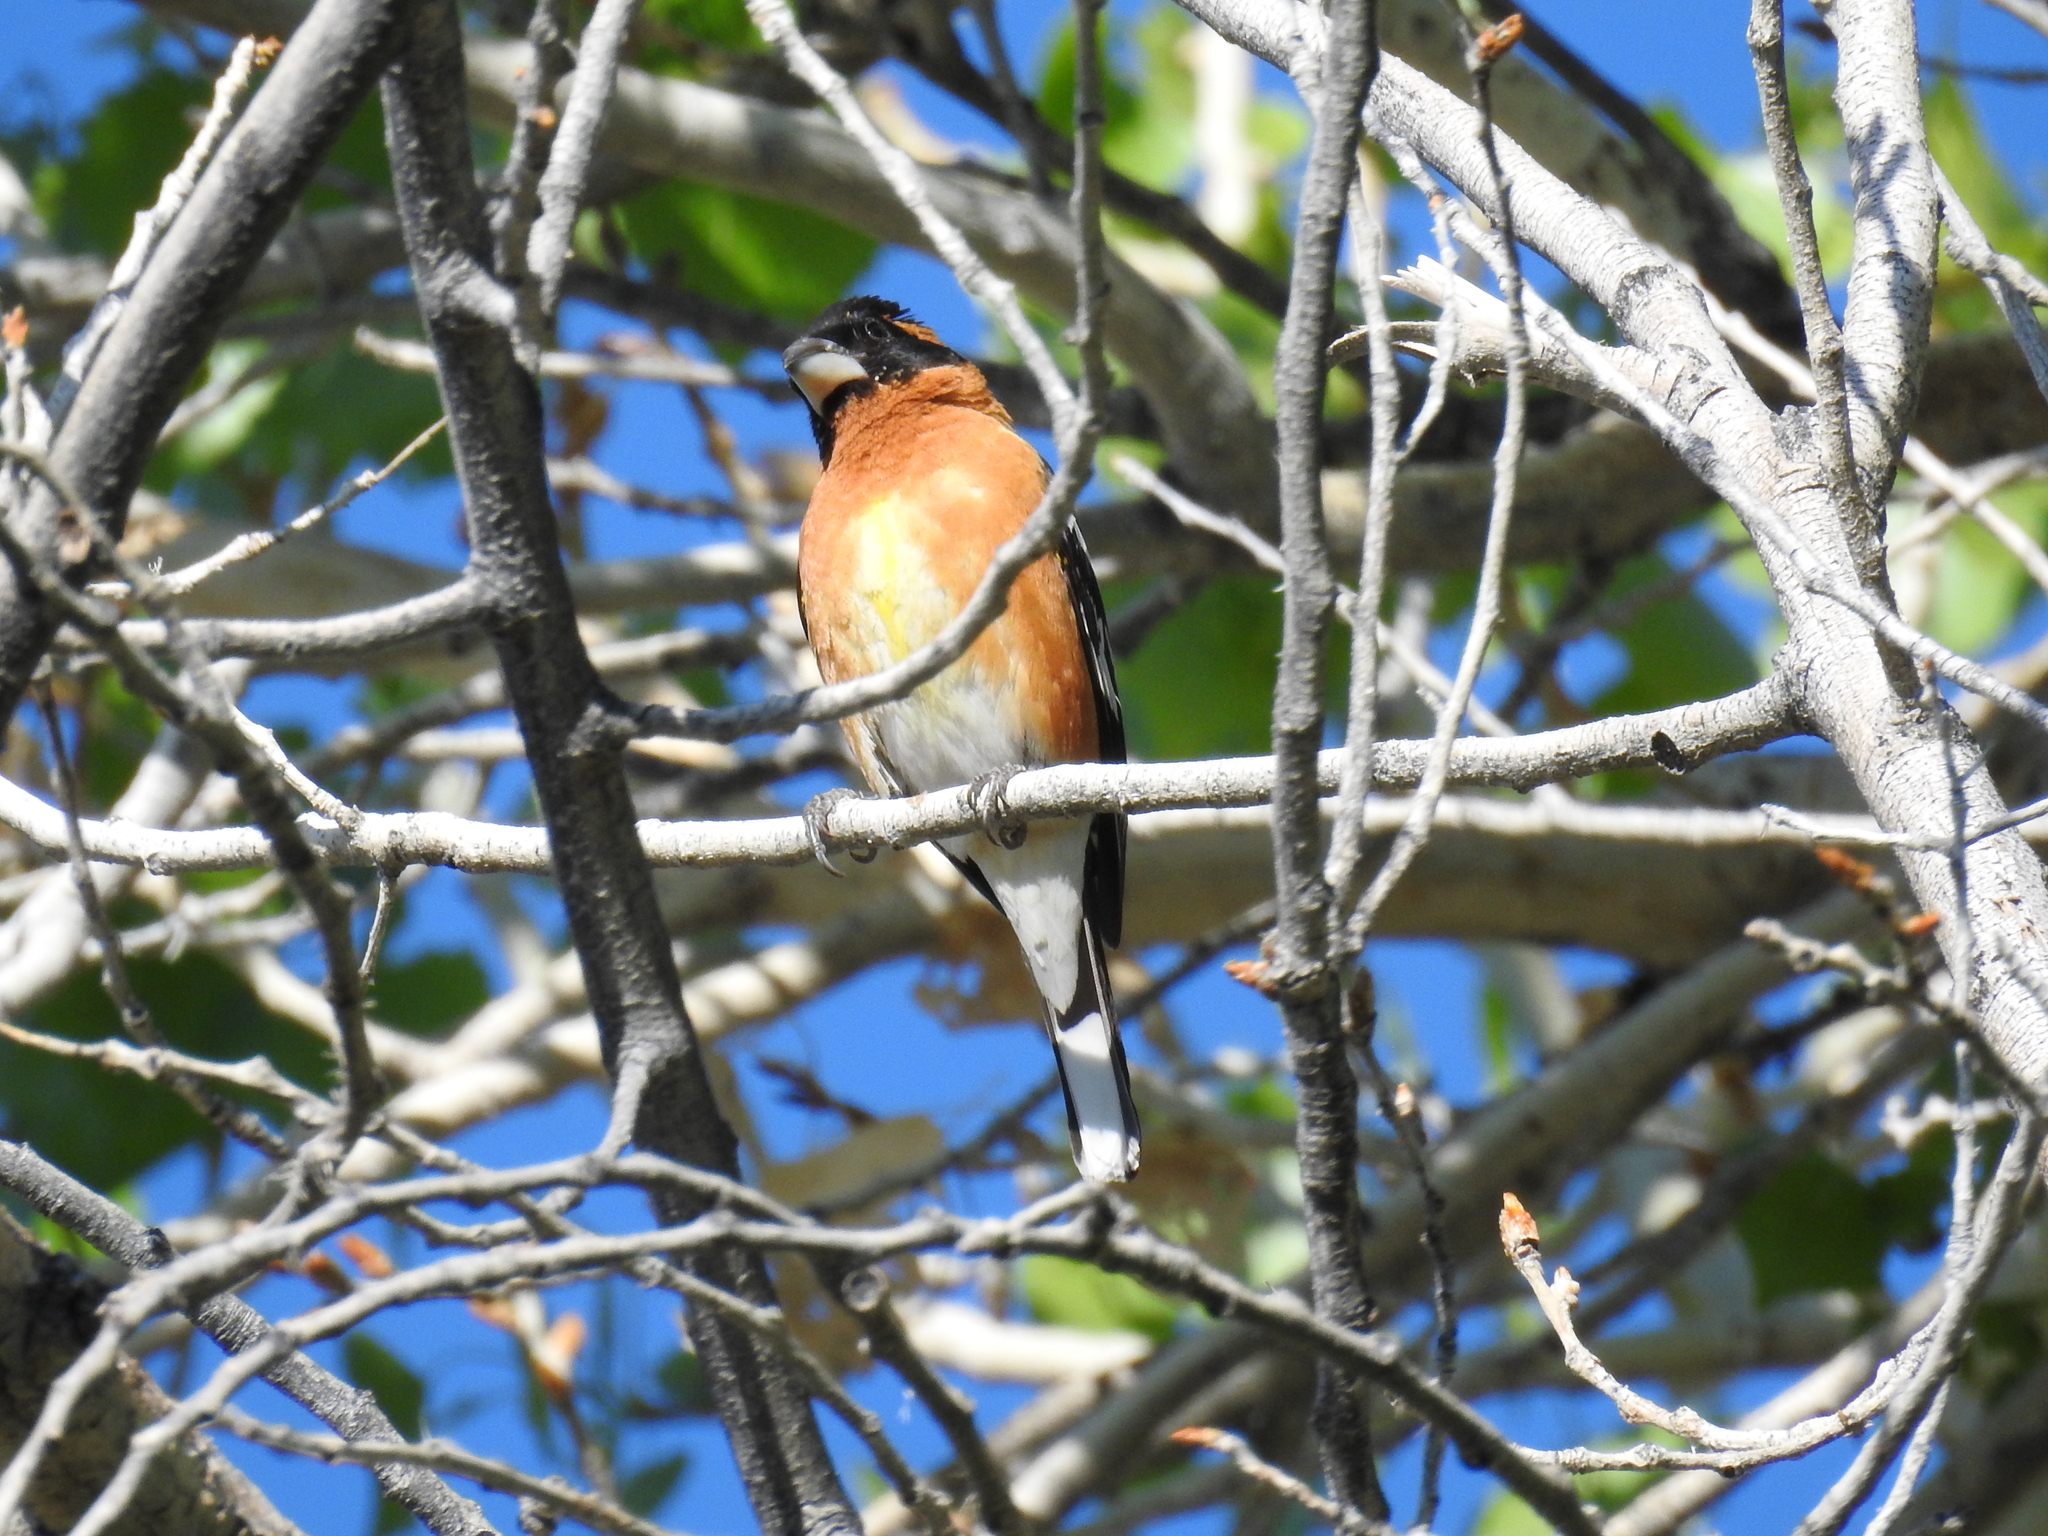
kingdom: Animalia
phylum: Chordata
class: Aves
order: Passeriformes
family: Cardinalidae
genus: Pheucticus
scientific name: Pheucticus melanocephalus
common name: Black-headed grosbeak
